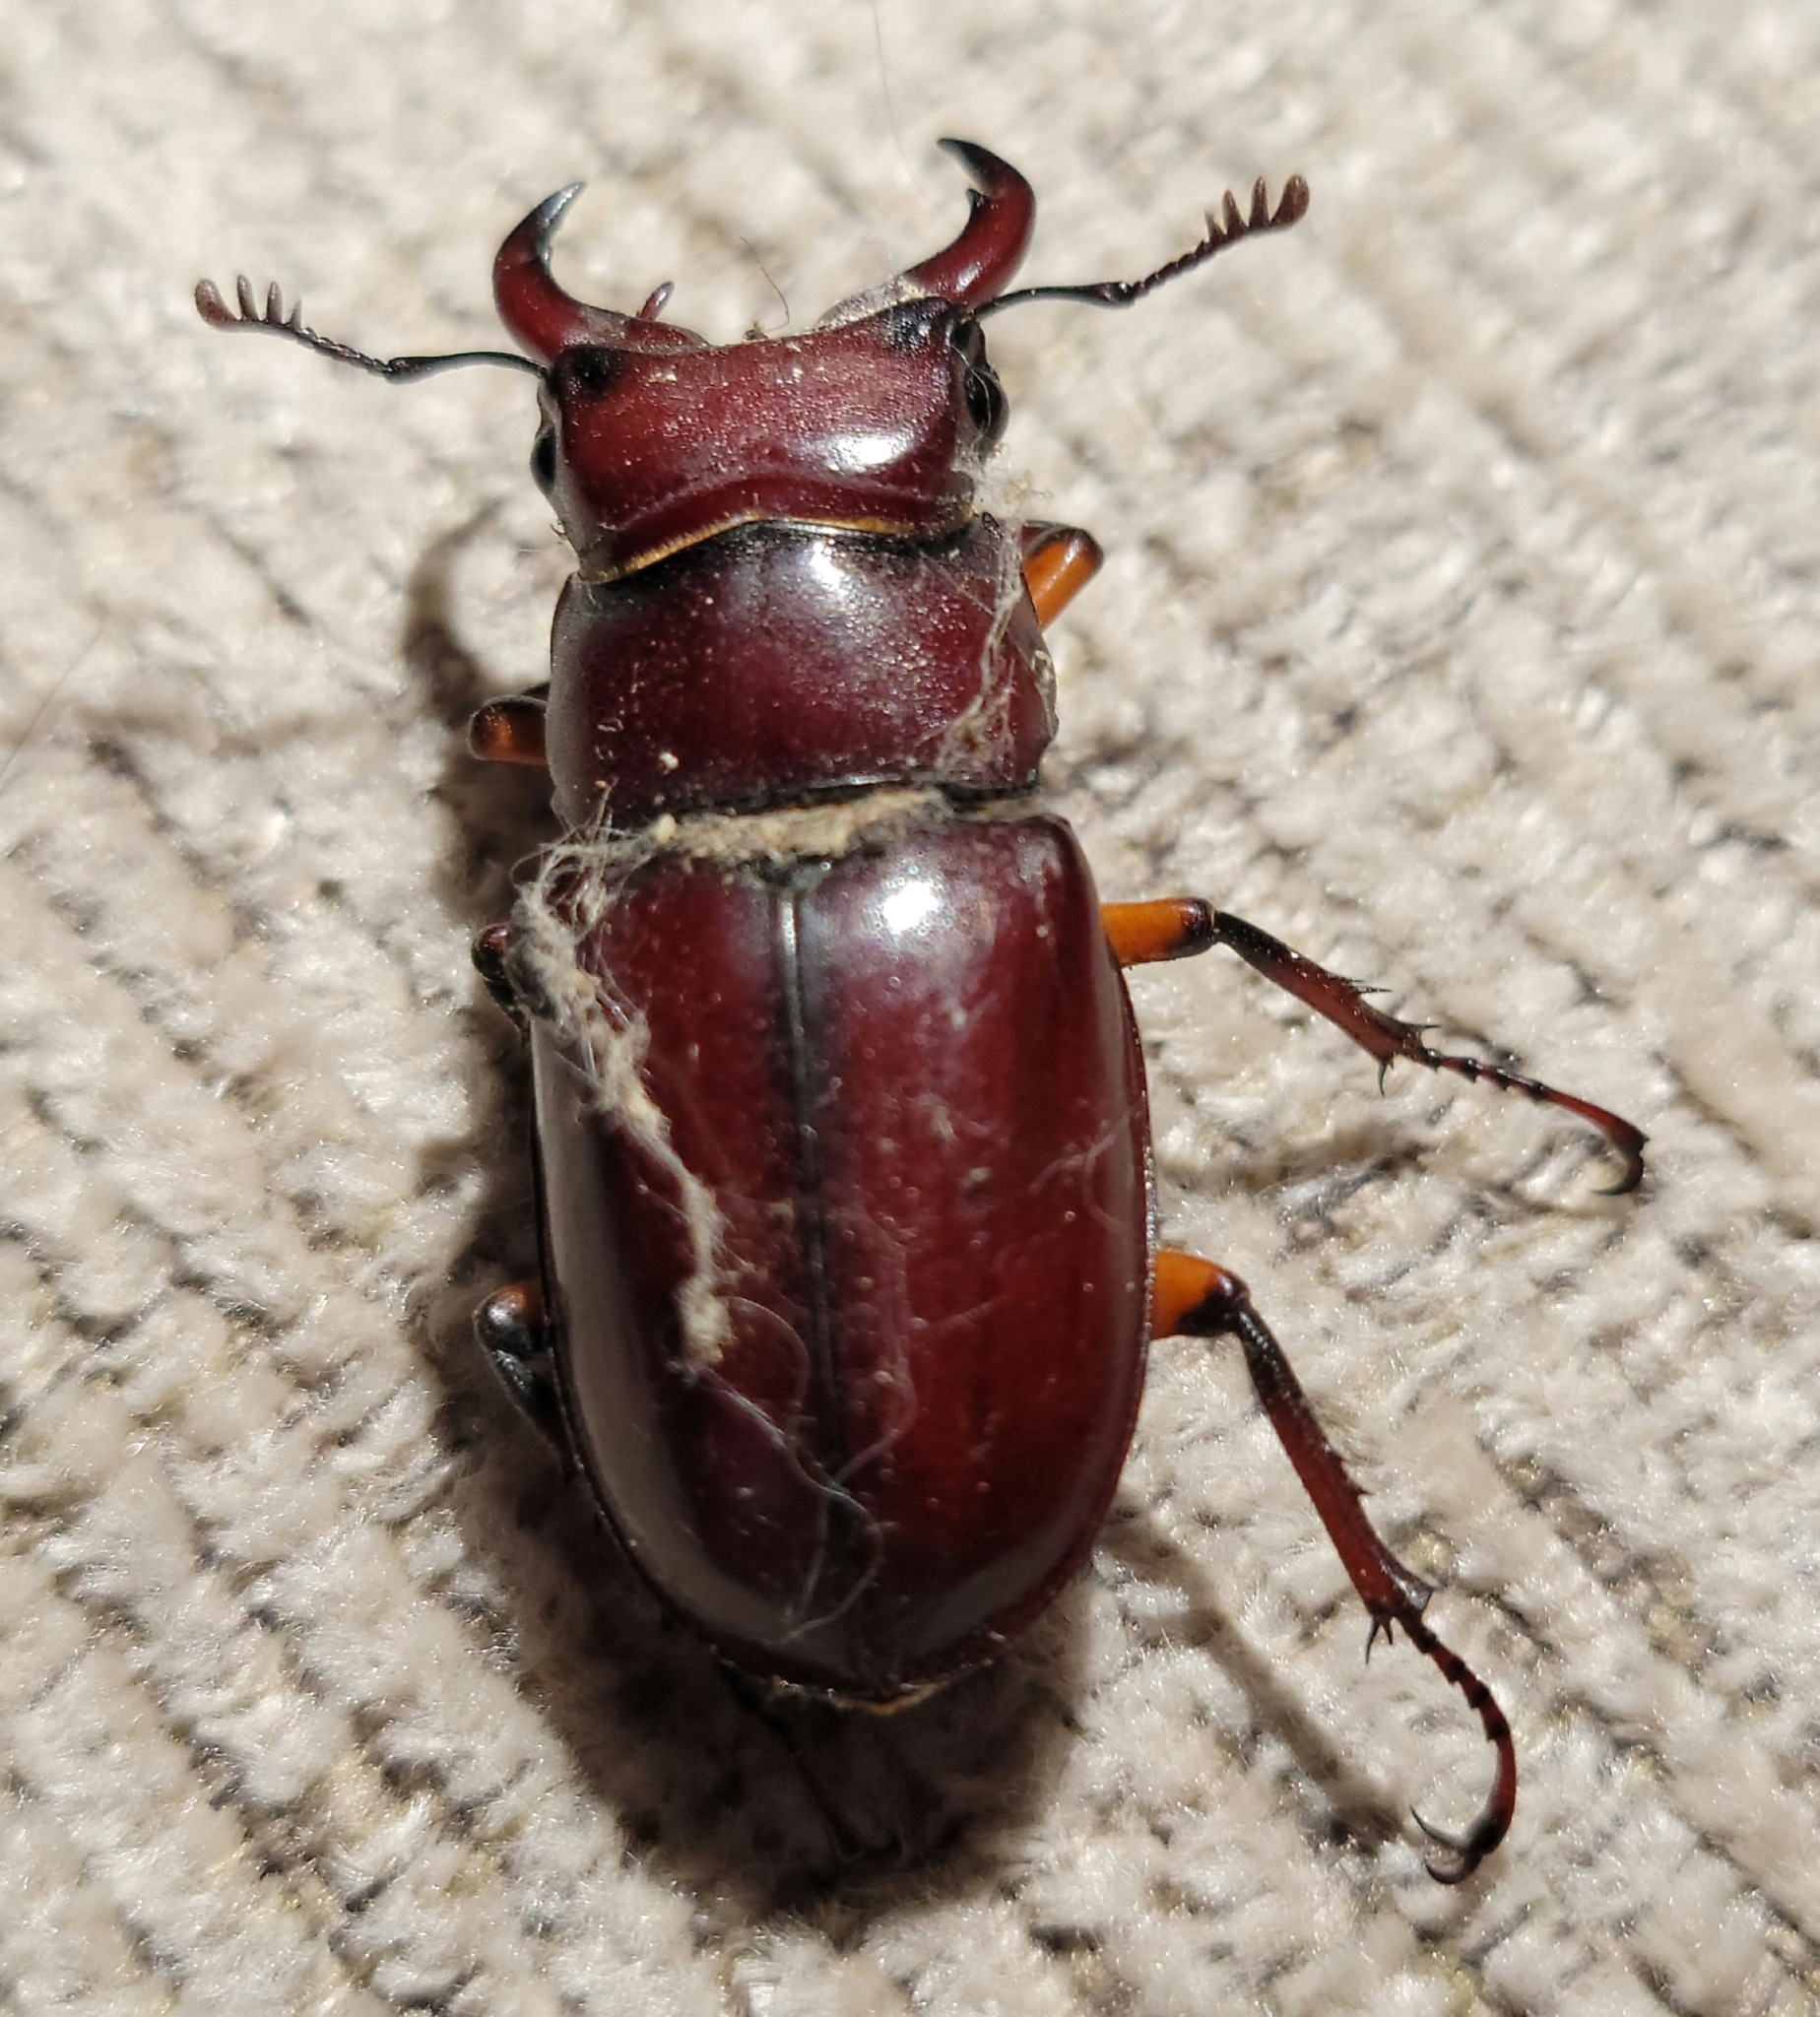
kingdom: Animalia
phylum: Arthropoda
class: Insecta
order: Coleoptera
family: Lucanidae
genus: Lucanus
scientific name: Lucanus capreolus
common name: Stag beetle
